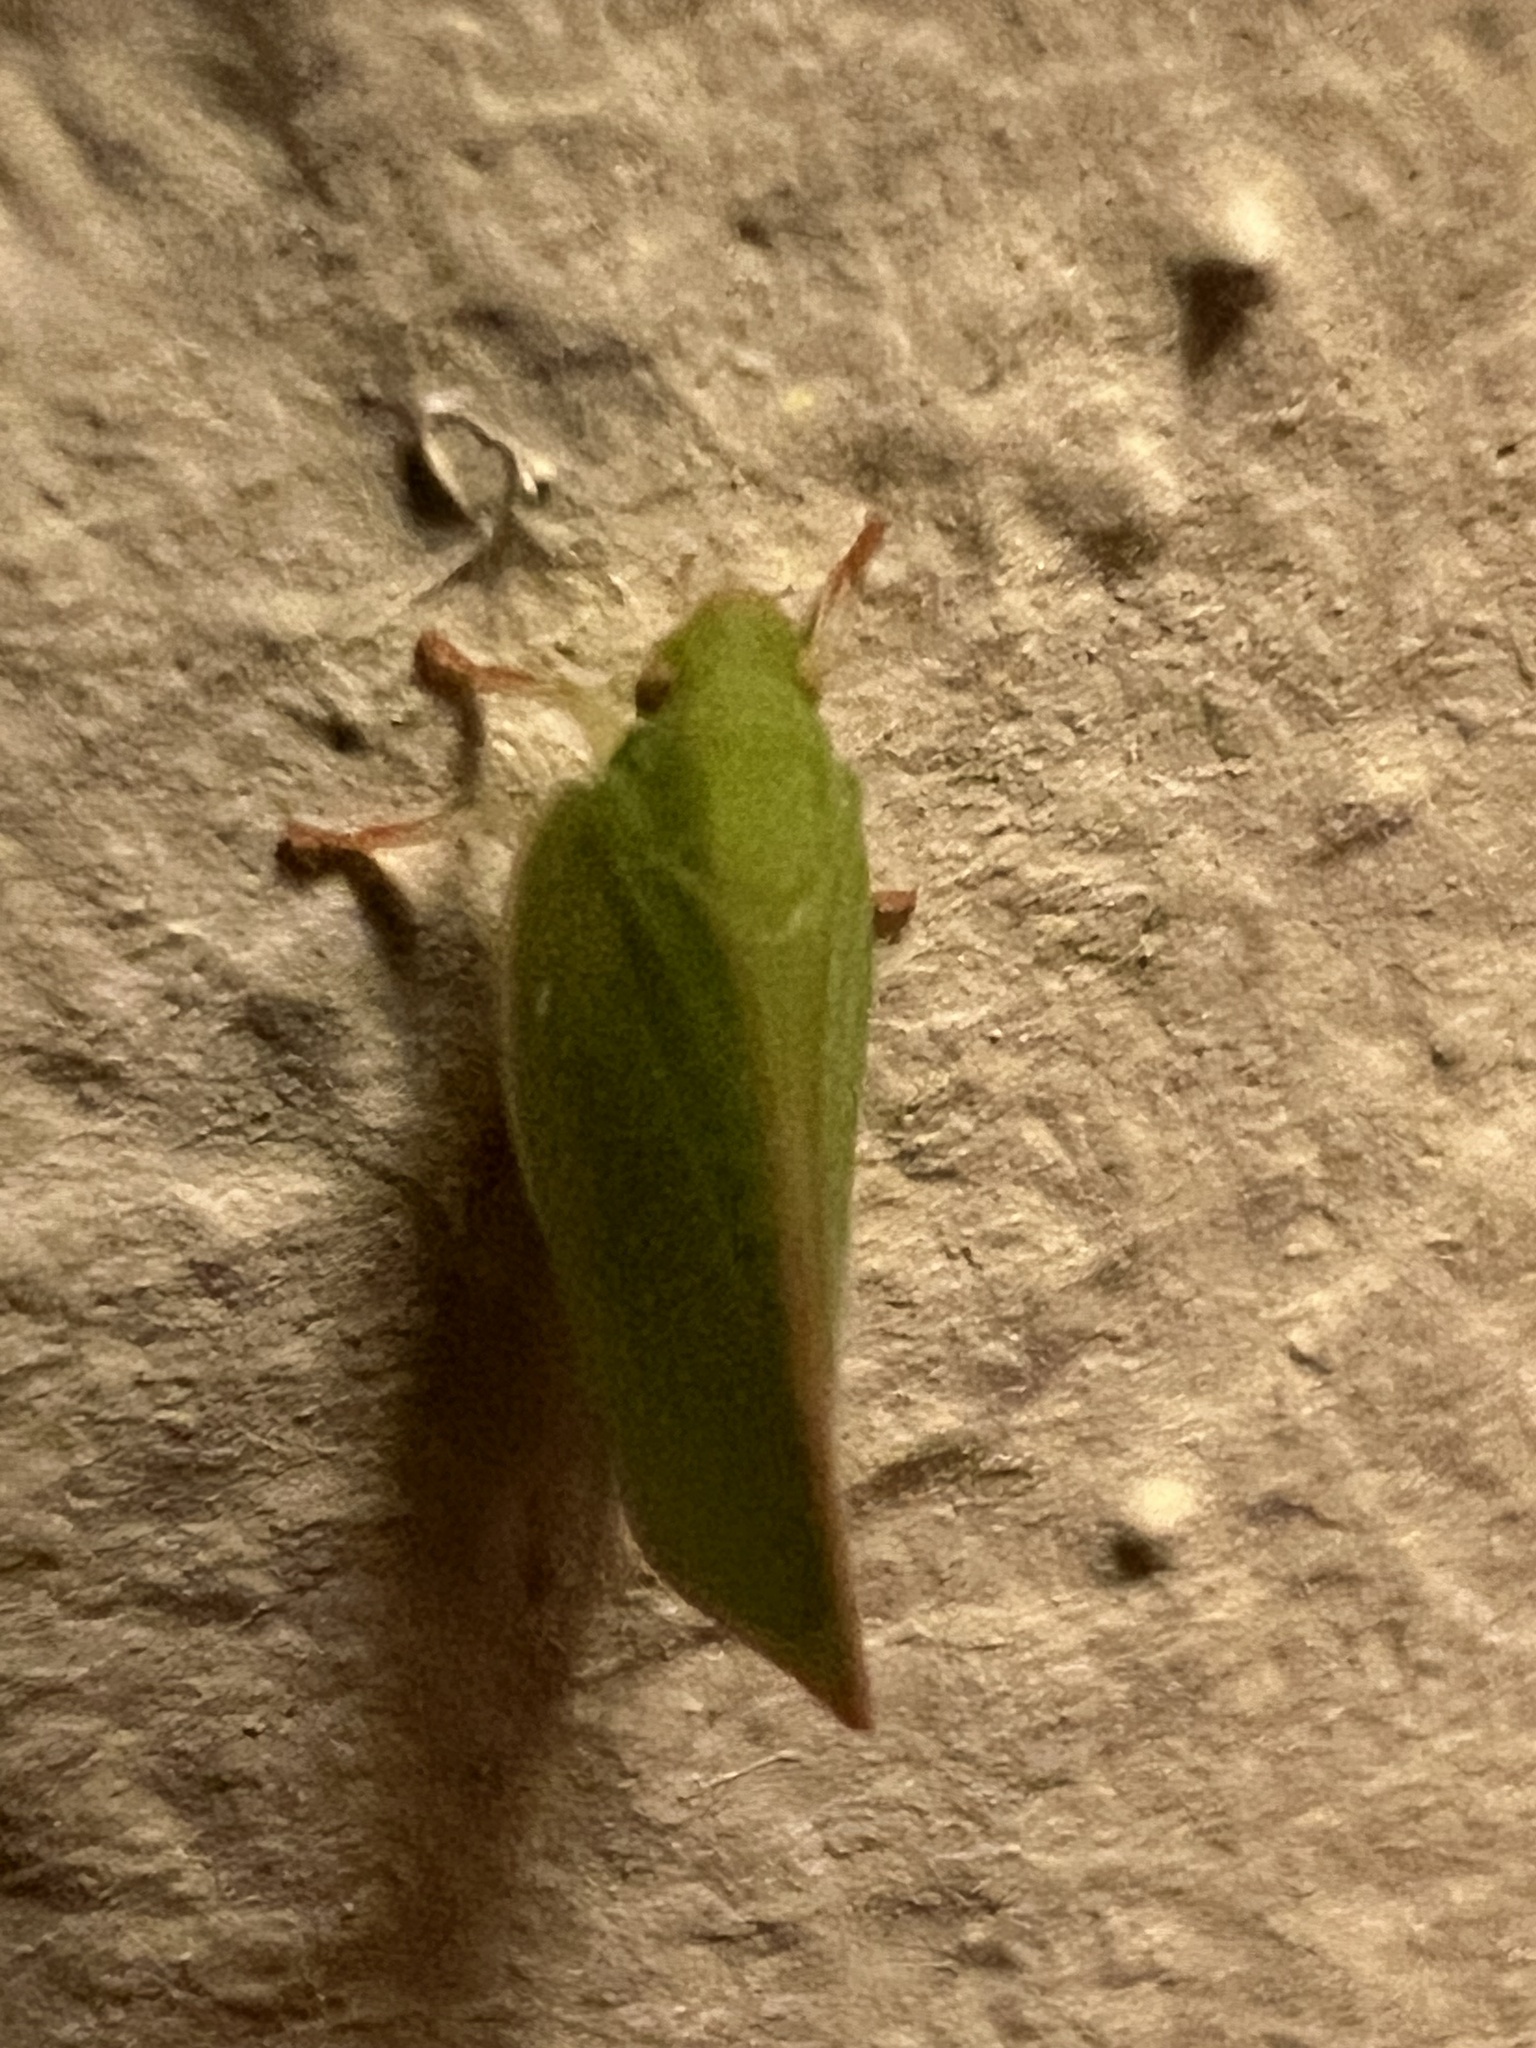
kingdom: Animalia
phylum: Arthropoda
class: Insecta
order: Hemiptera
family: Flatidae
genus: Siphanta
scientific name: Siphanta acuta
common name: Torpedo bug
